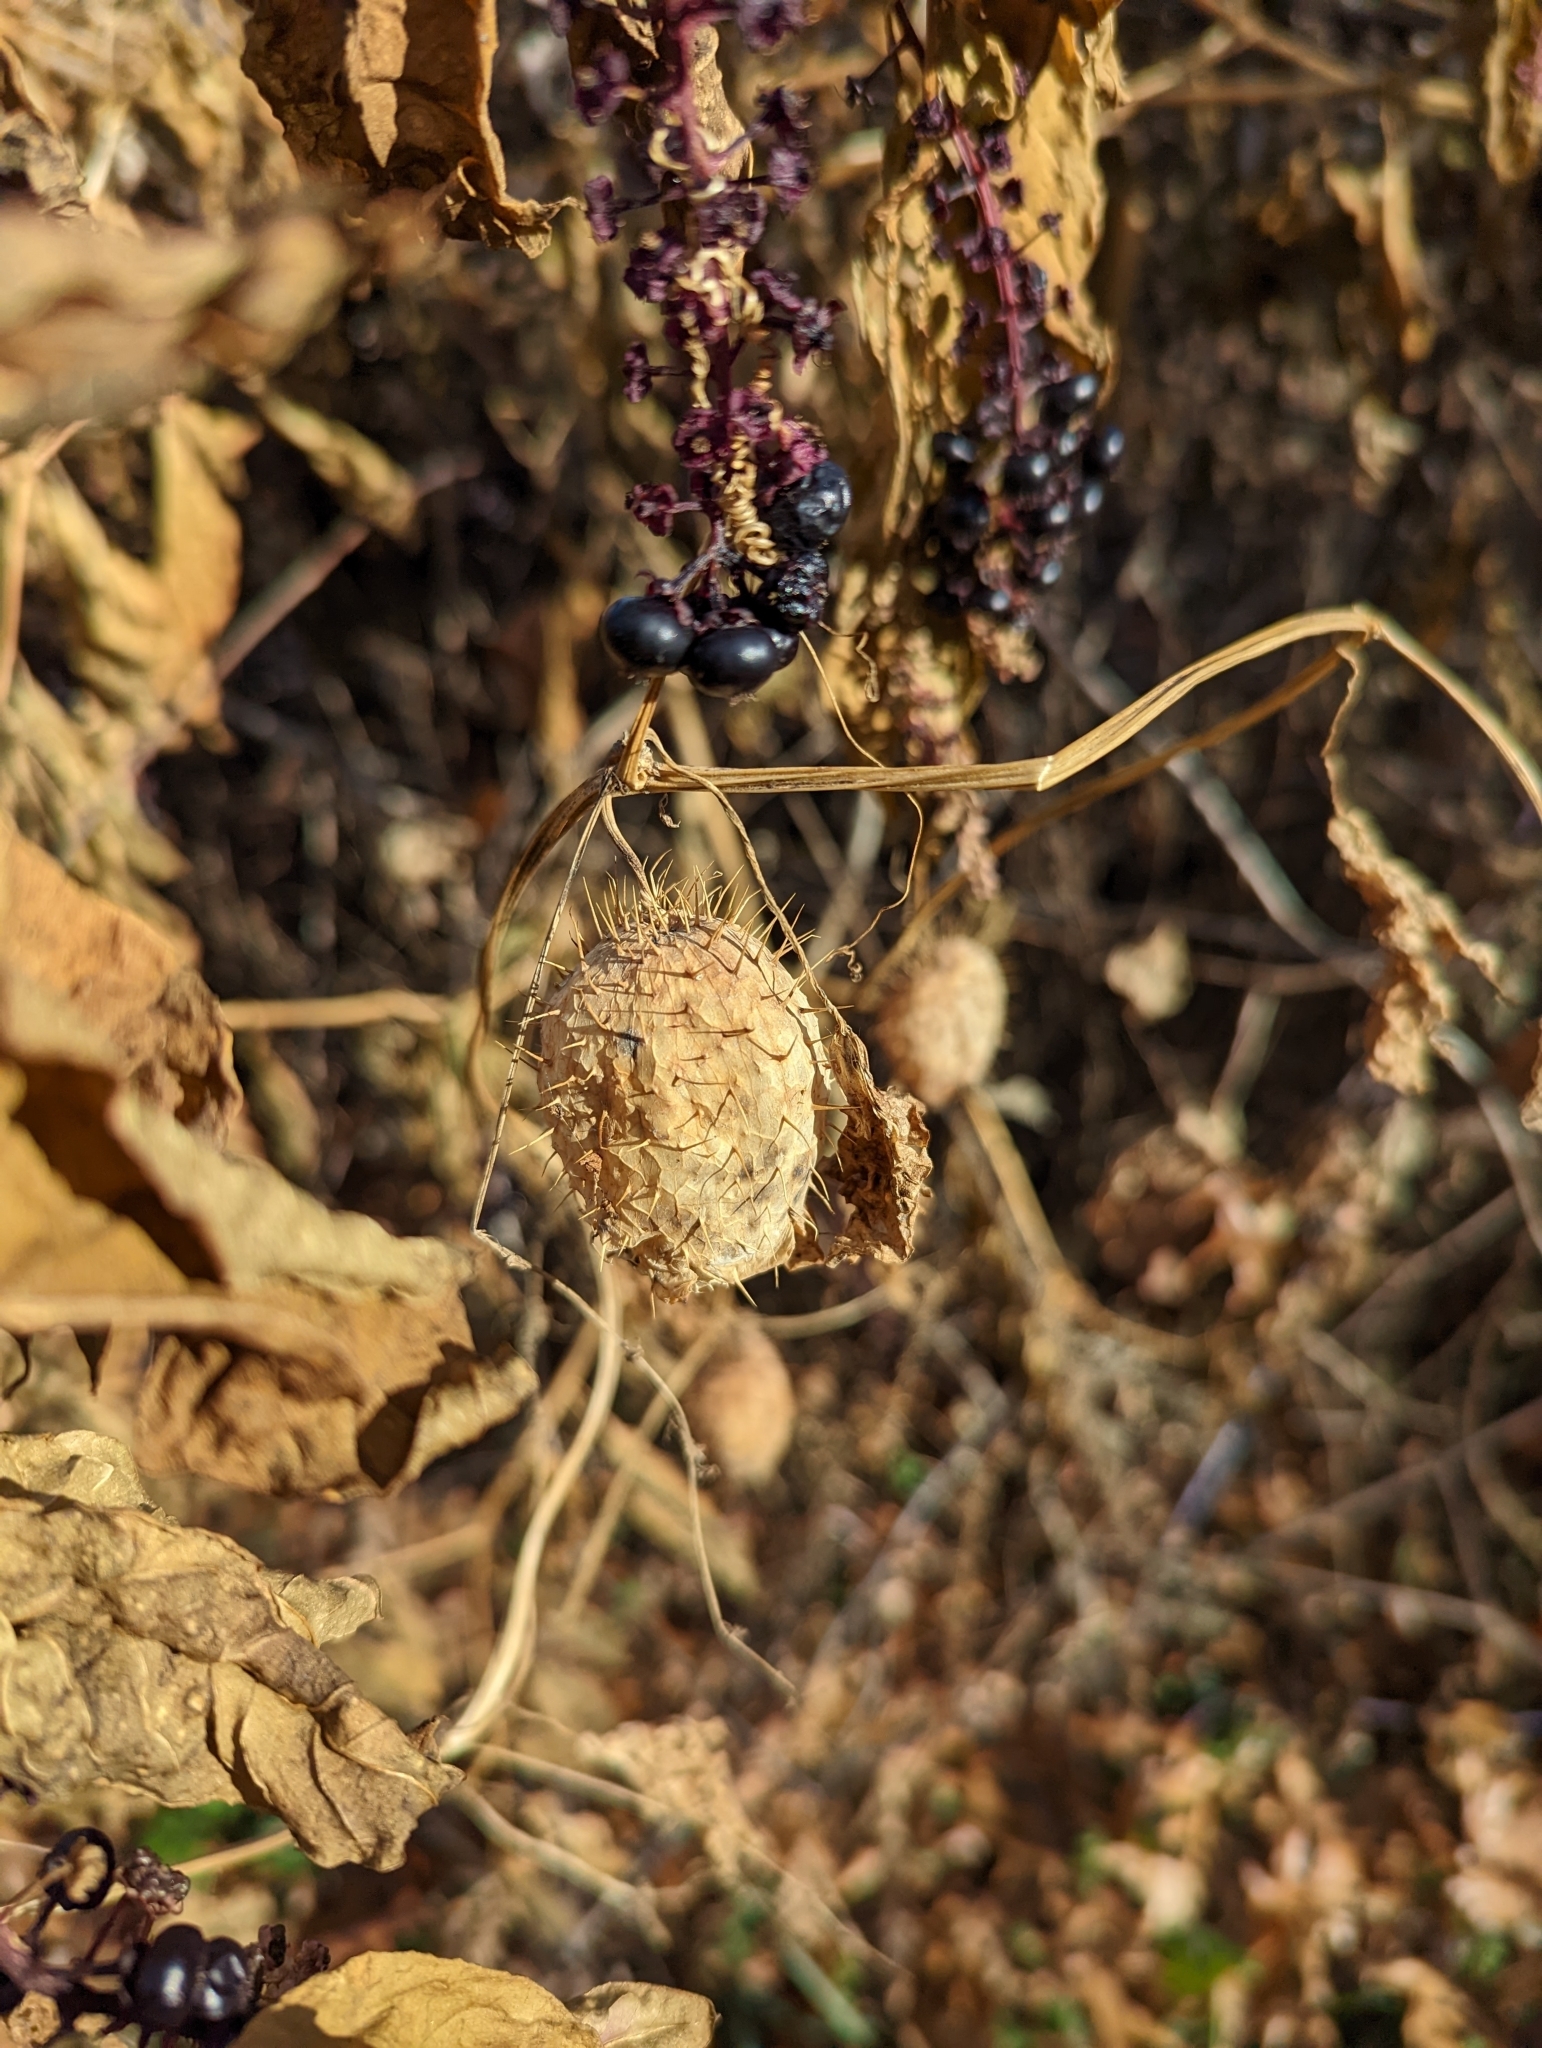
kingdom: Plantae
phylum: Tracheophyta
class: Magnoliopsida
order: Cucurbitales
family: Cucurbitaceae
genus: Echinocystis
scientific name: Echinocystis lobata
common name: Wild cucumber
